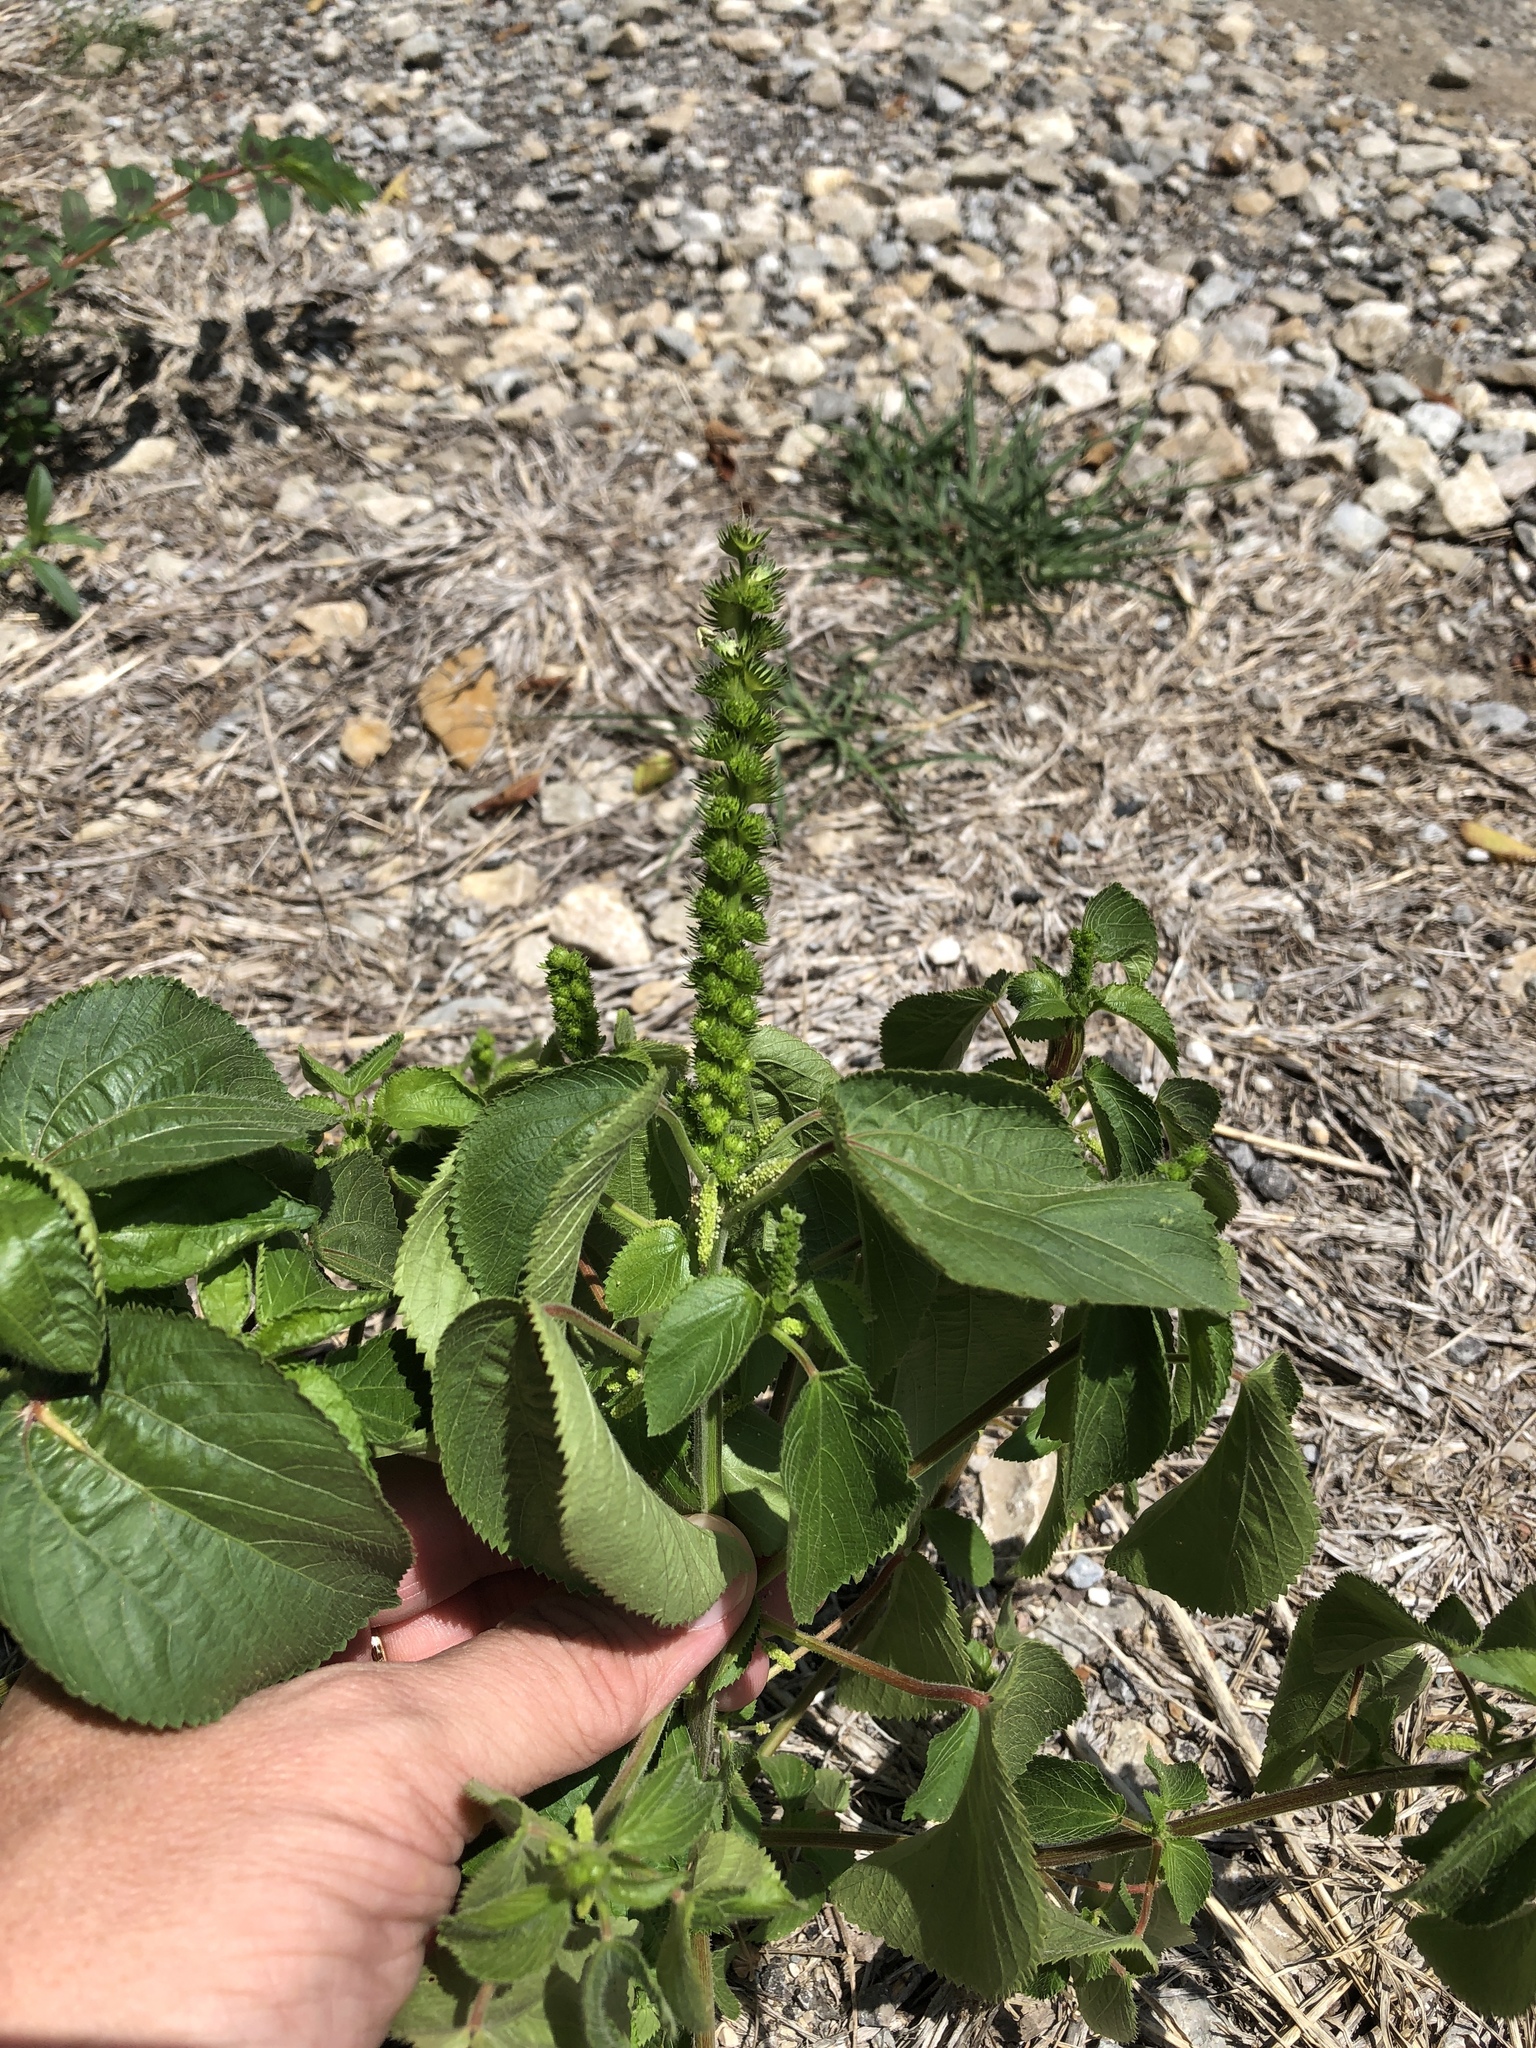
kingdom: Plantae
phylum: Tracheophyta
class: Magnoliopsida
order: Malpighiales
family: Euphorbiaceae
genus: Acalypha
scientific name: Acalypha ostryifolia
